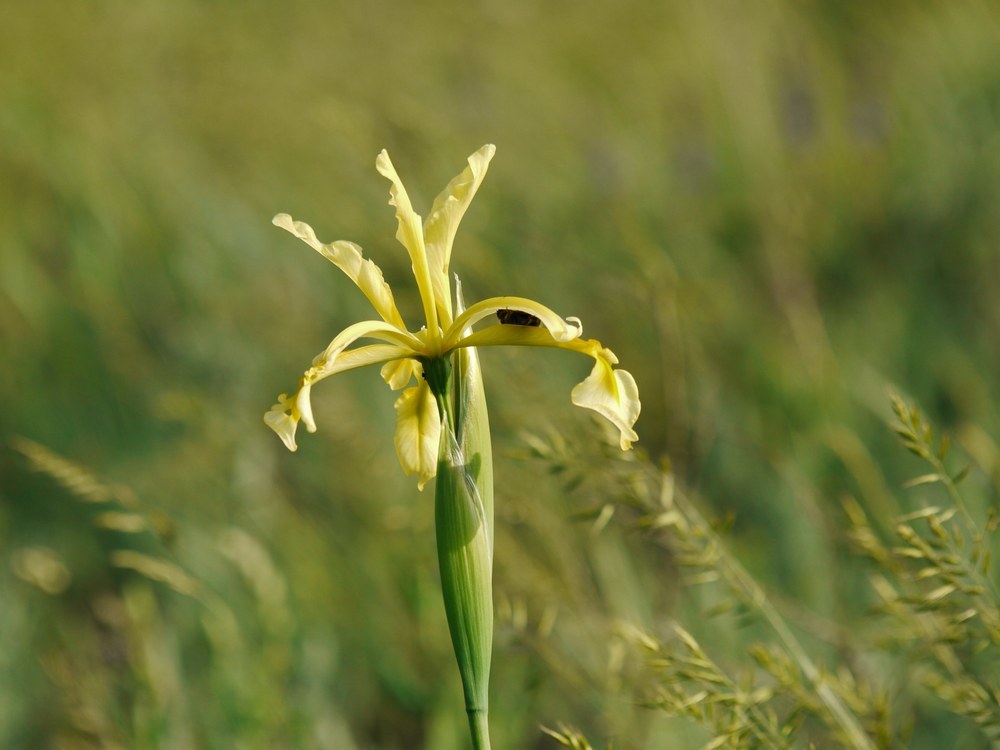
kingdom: Plantae
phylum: Tracheophyta
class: Liliopsida
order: Asparagales
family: Iridaceae
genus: Iris
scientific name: Iris halophila
